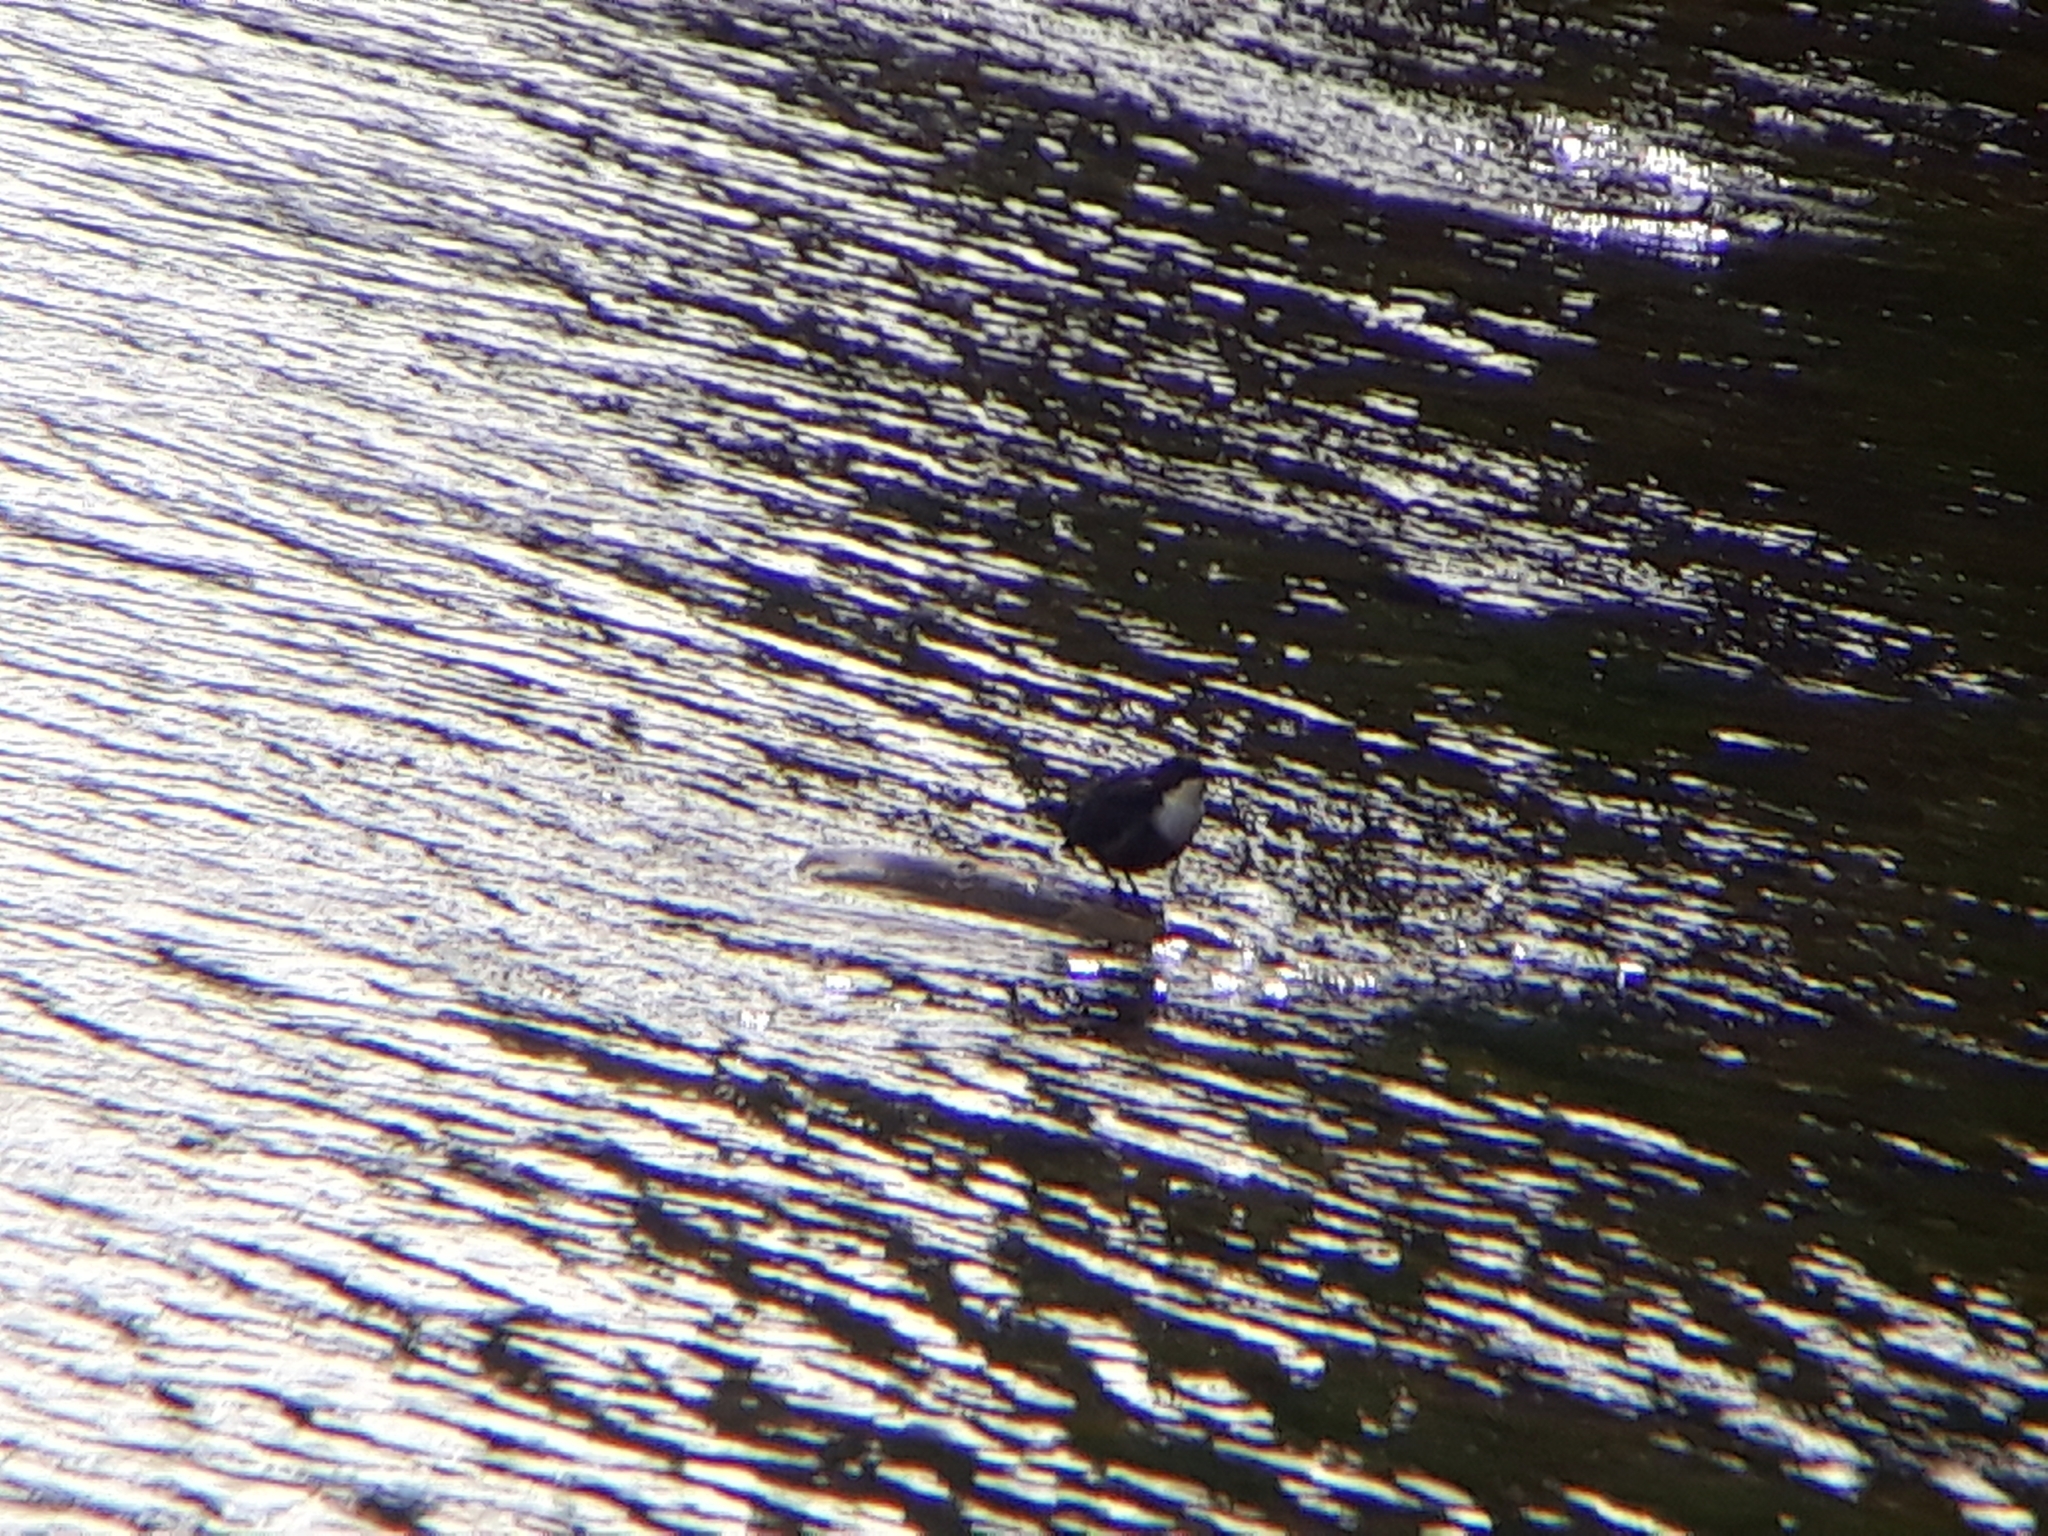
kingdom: Animalia
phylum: Chordata
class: Aves
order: Passeriformes
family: Cinclidae
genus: Cinclus
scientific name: Cinclus cinclus
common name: White-throated dipper
